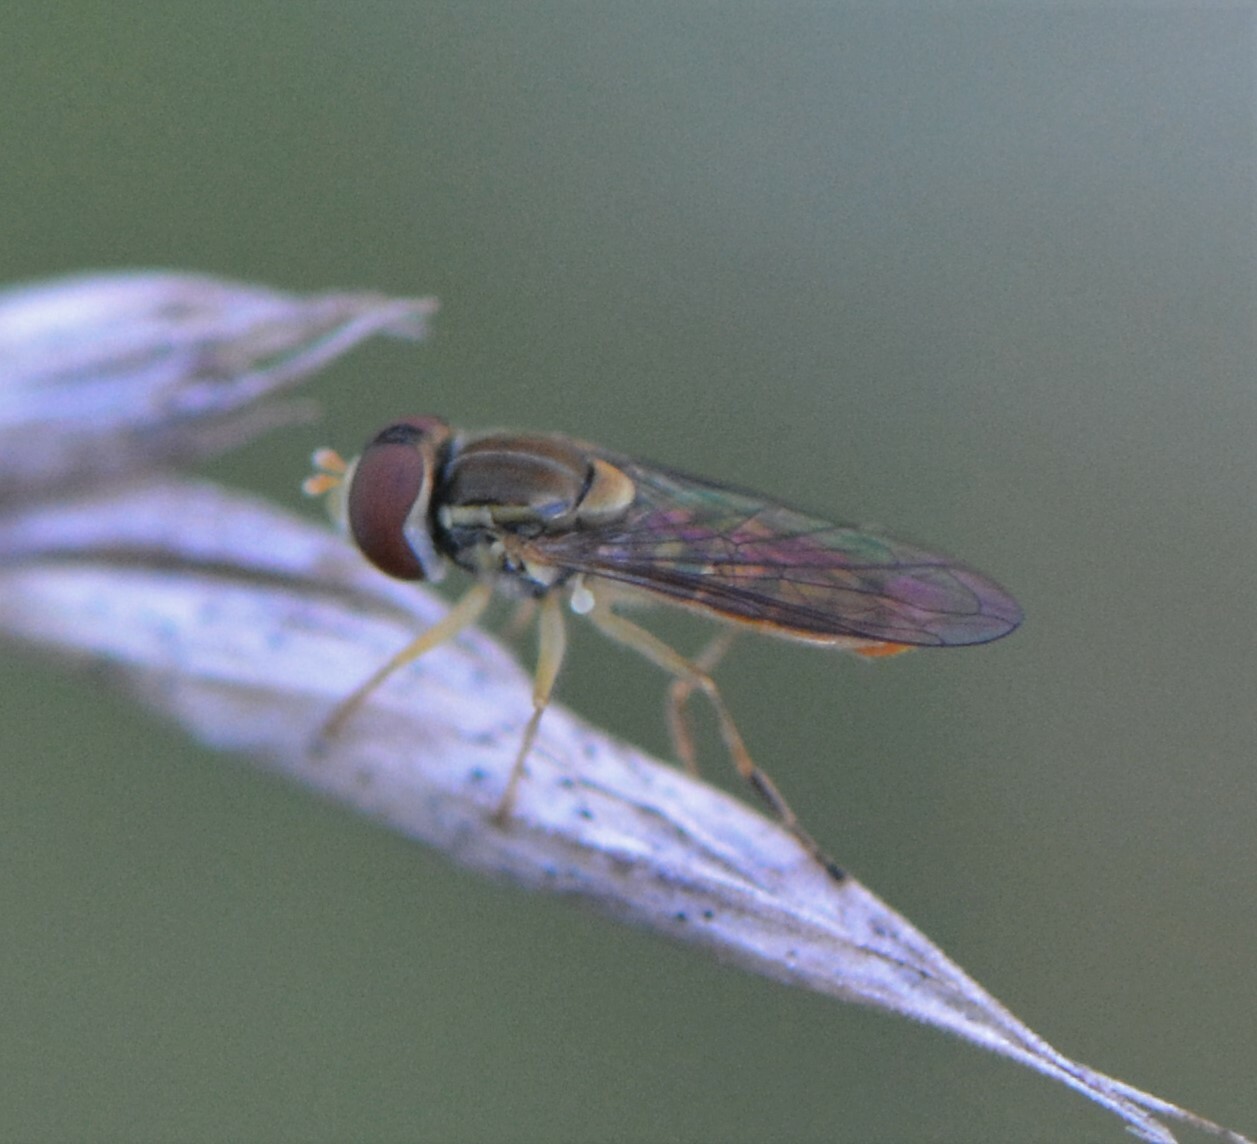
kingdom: Animalia
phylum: Arthropoda
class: Insecta
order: Diptera
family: Syrphidae
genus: Toxomerus
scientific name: Toxomerus marginatus
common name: Syrphid fly
